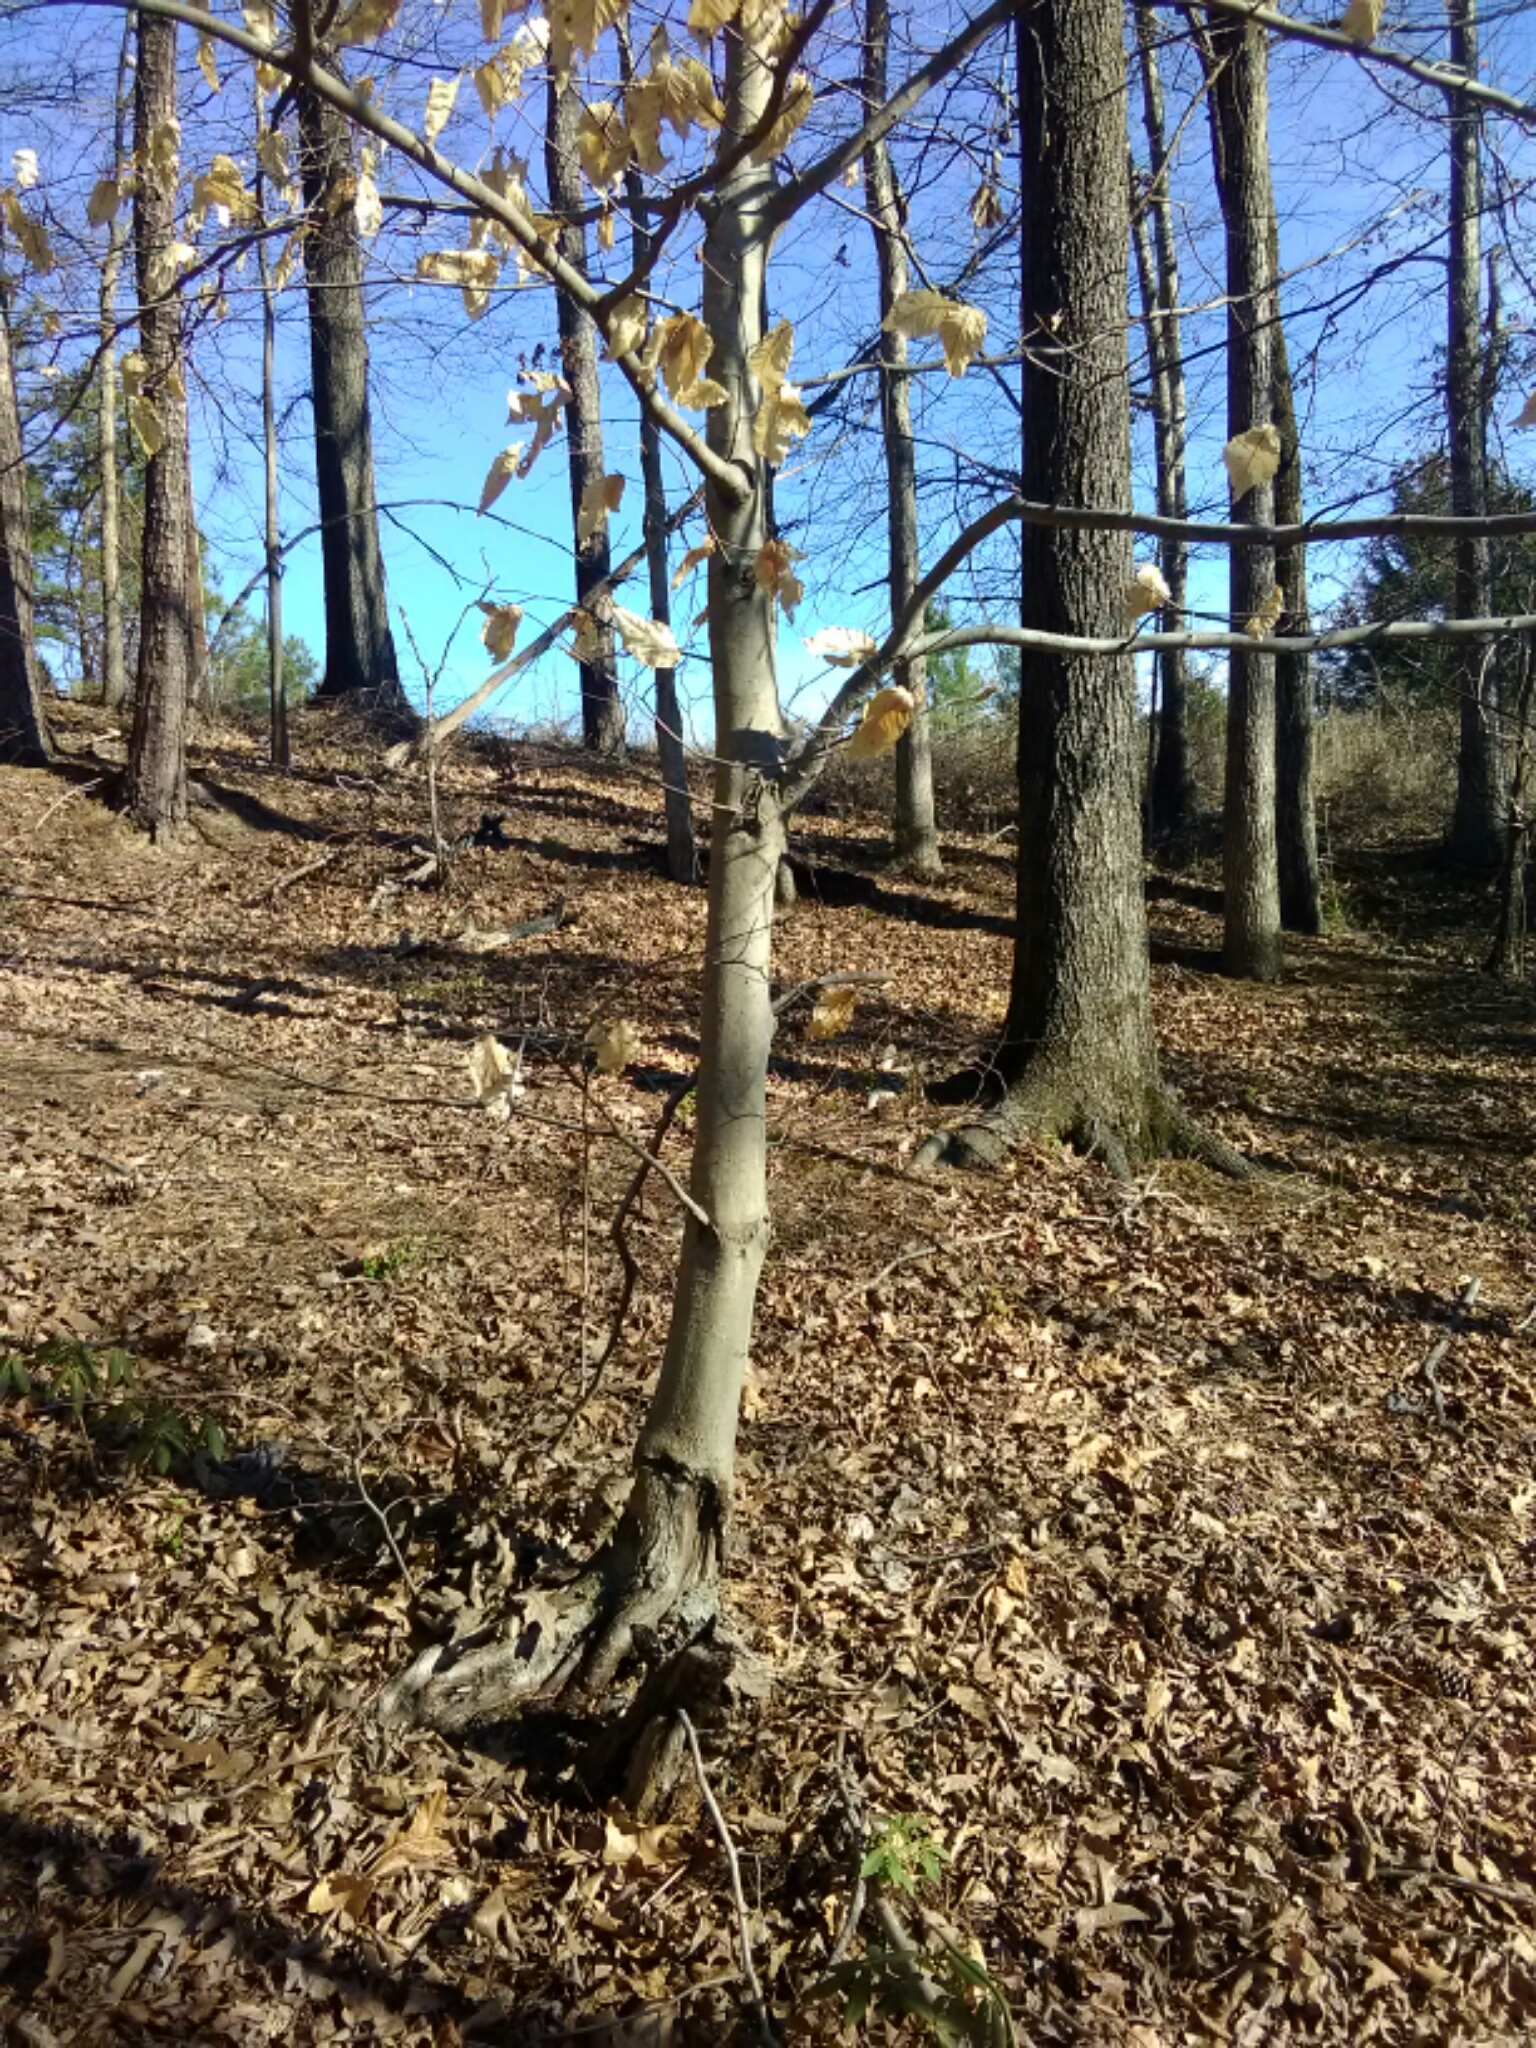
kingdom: Plantae
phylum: Tracheophyta
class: Magnoliopsida
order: Fagales
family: Fagaceae
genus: Fagus
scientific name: Fagus grandifolia
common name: American beech
